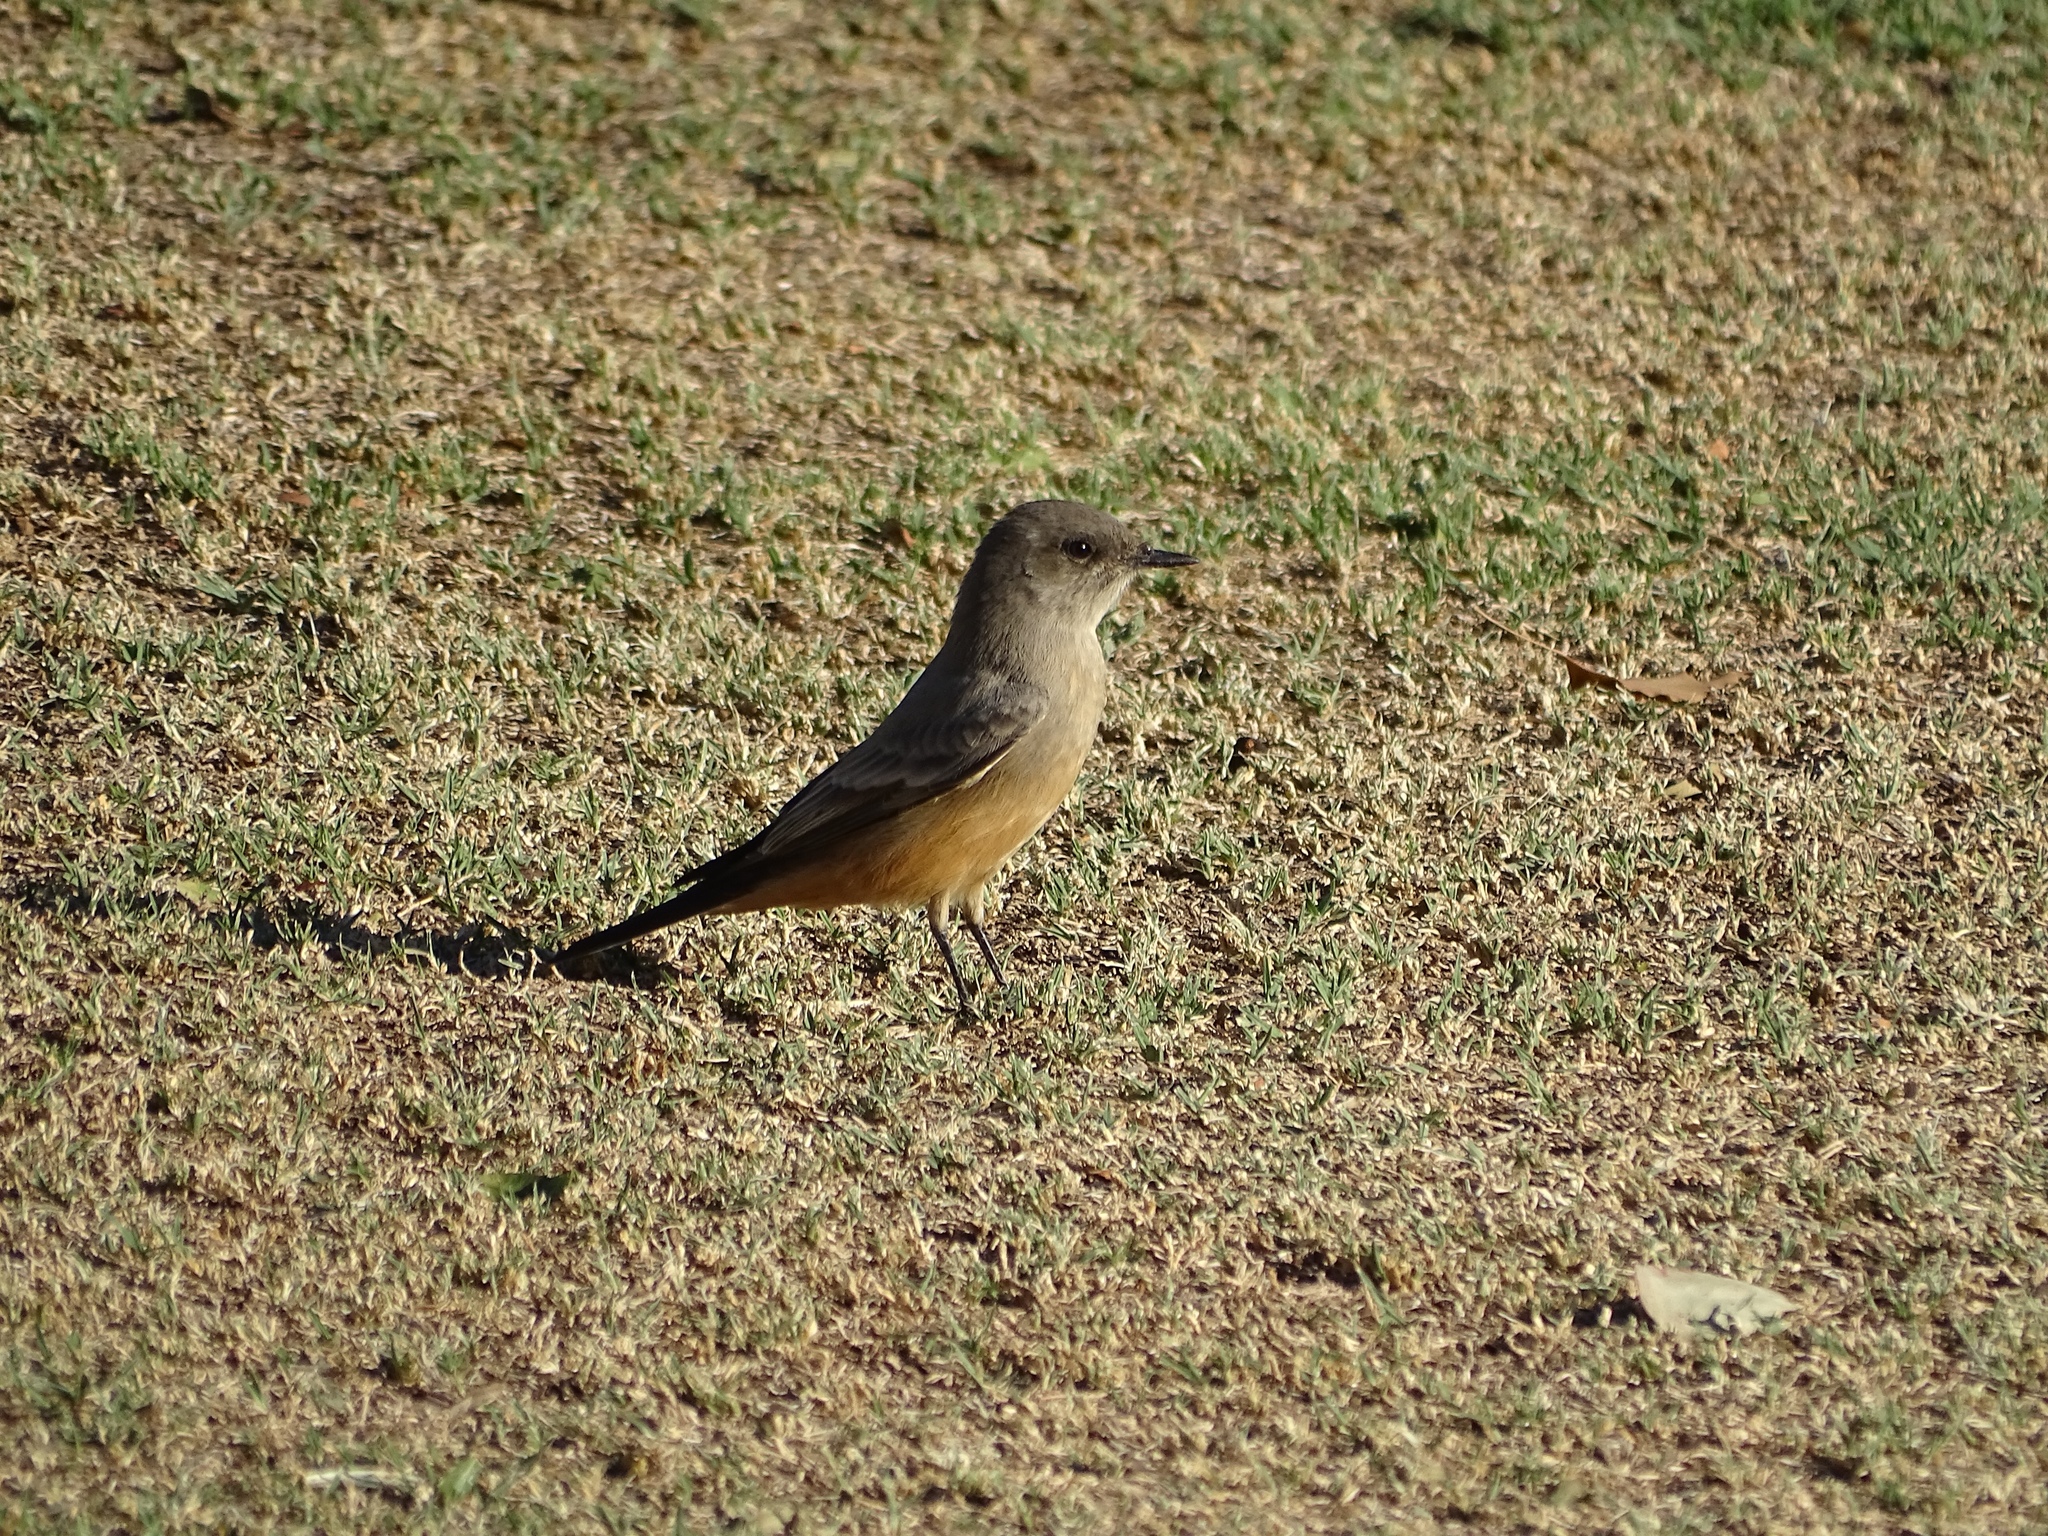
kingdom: Animalia
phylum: Chordata
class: Aves
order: Passeriformes
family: Tyrannidae
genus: Sayornis
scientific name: Sayornis saya
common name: Say's phoebe
